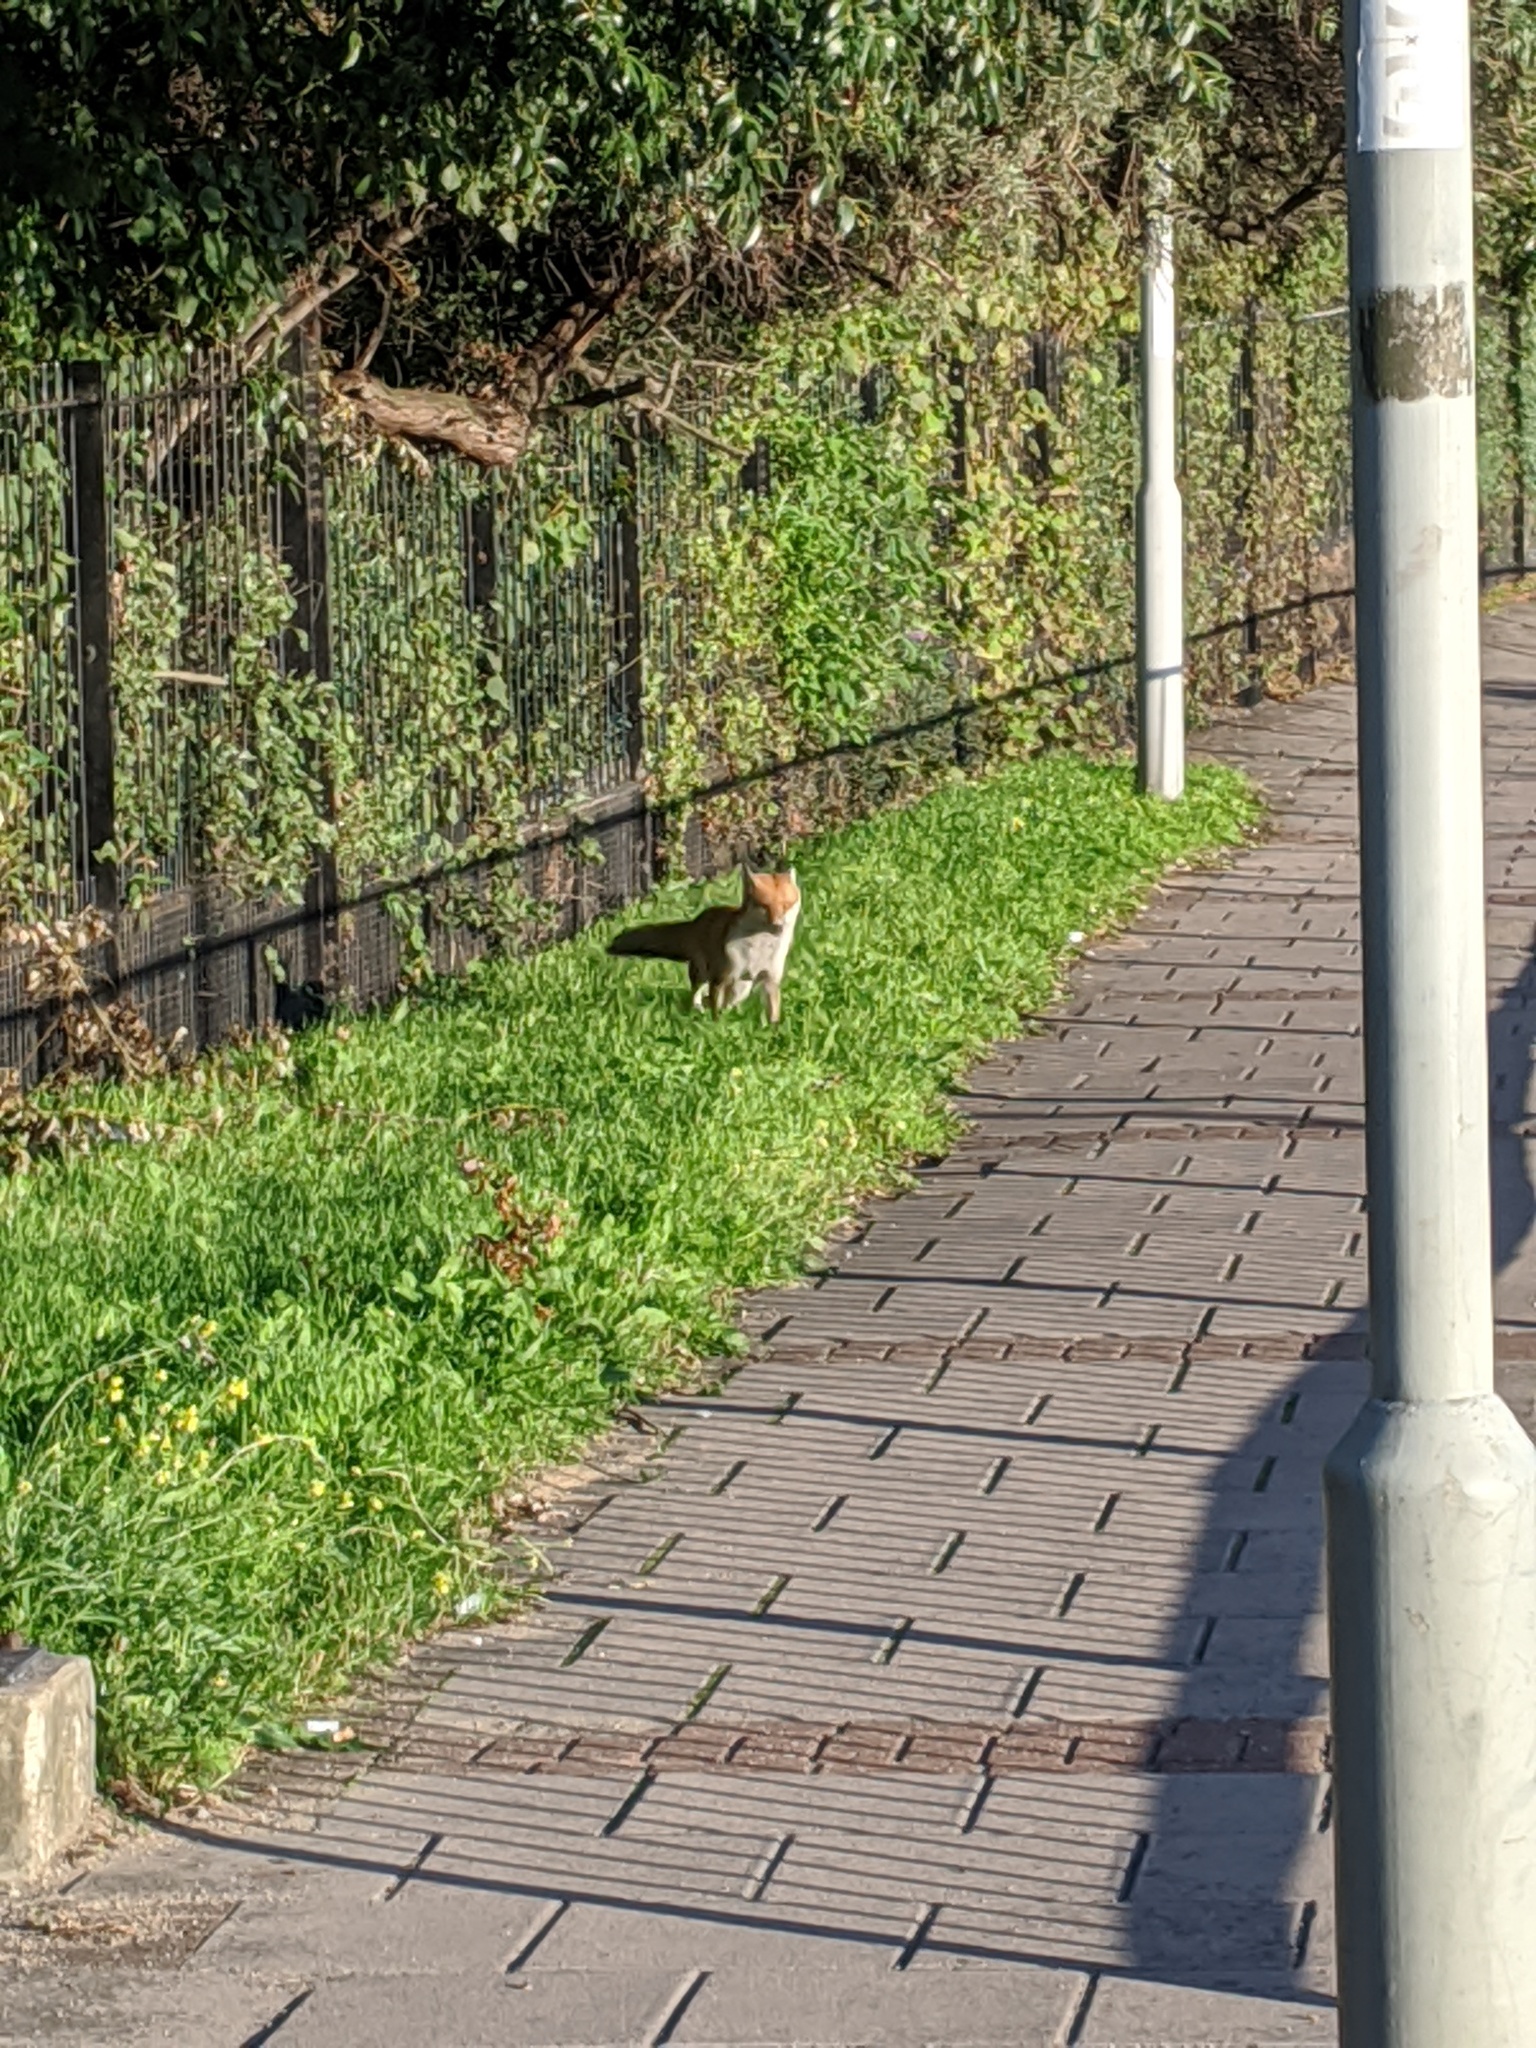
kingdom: Animalia
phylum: Chordata
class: Mammalia
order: Carnivora
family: Canidae
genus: Vulpes
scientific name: Vulpes vulpes
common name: Red fox
